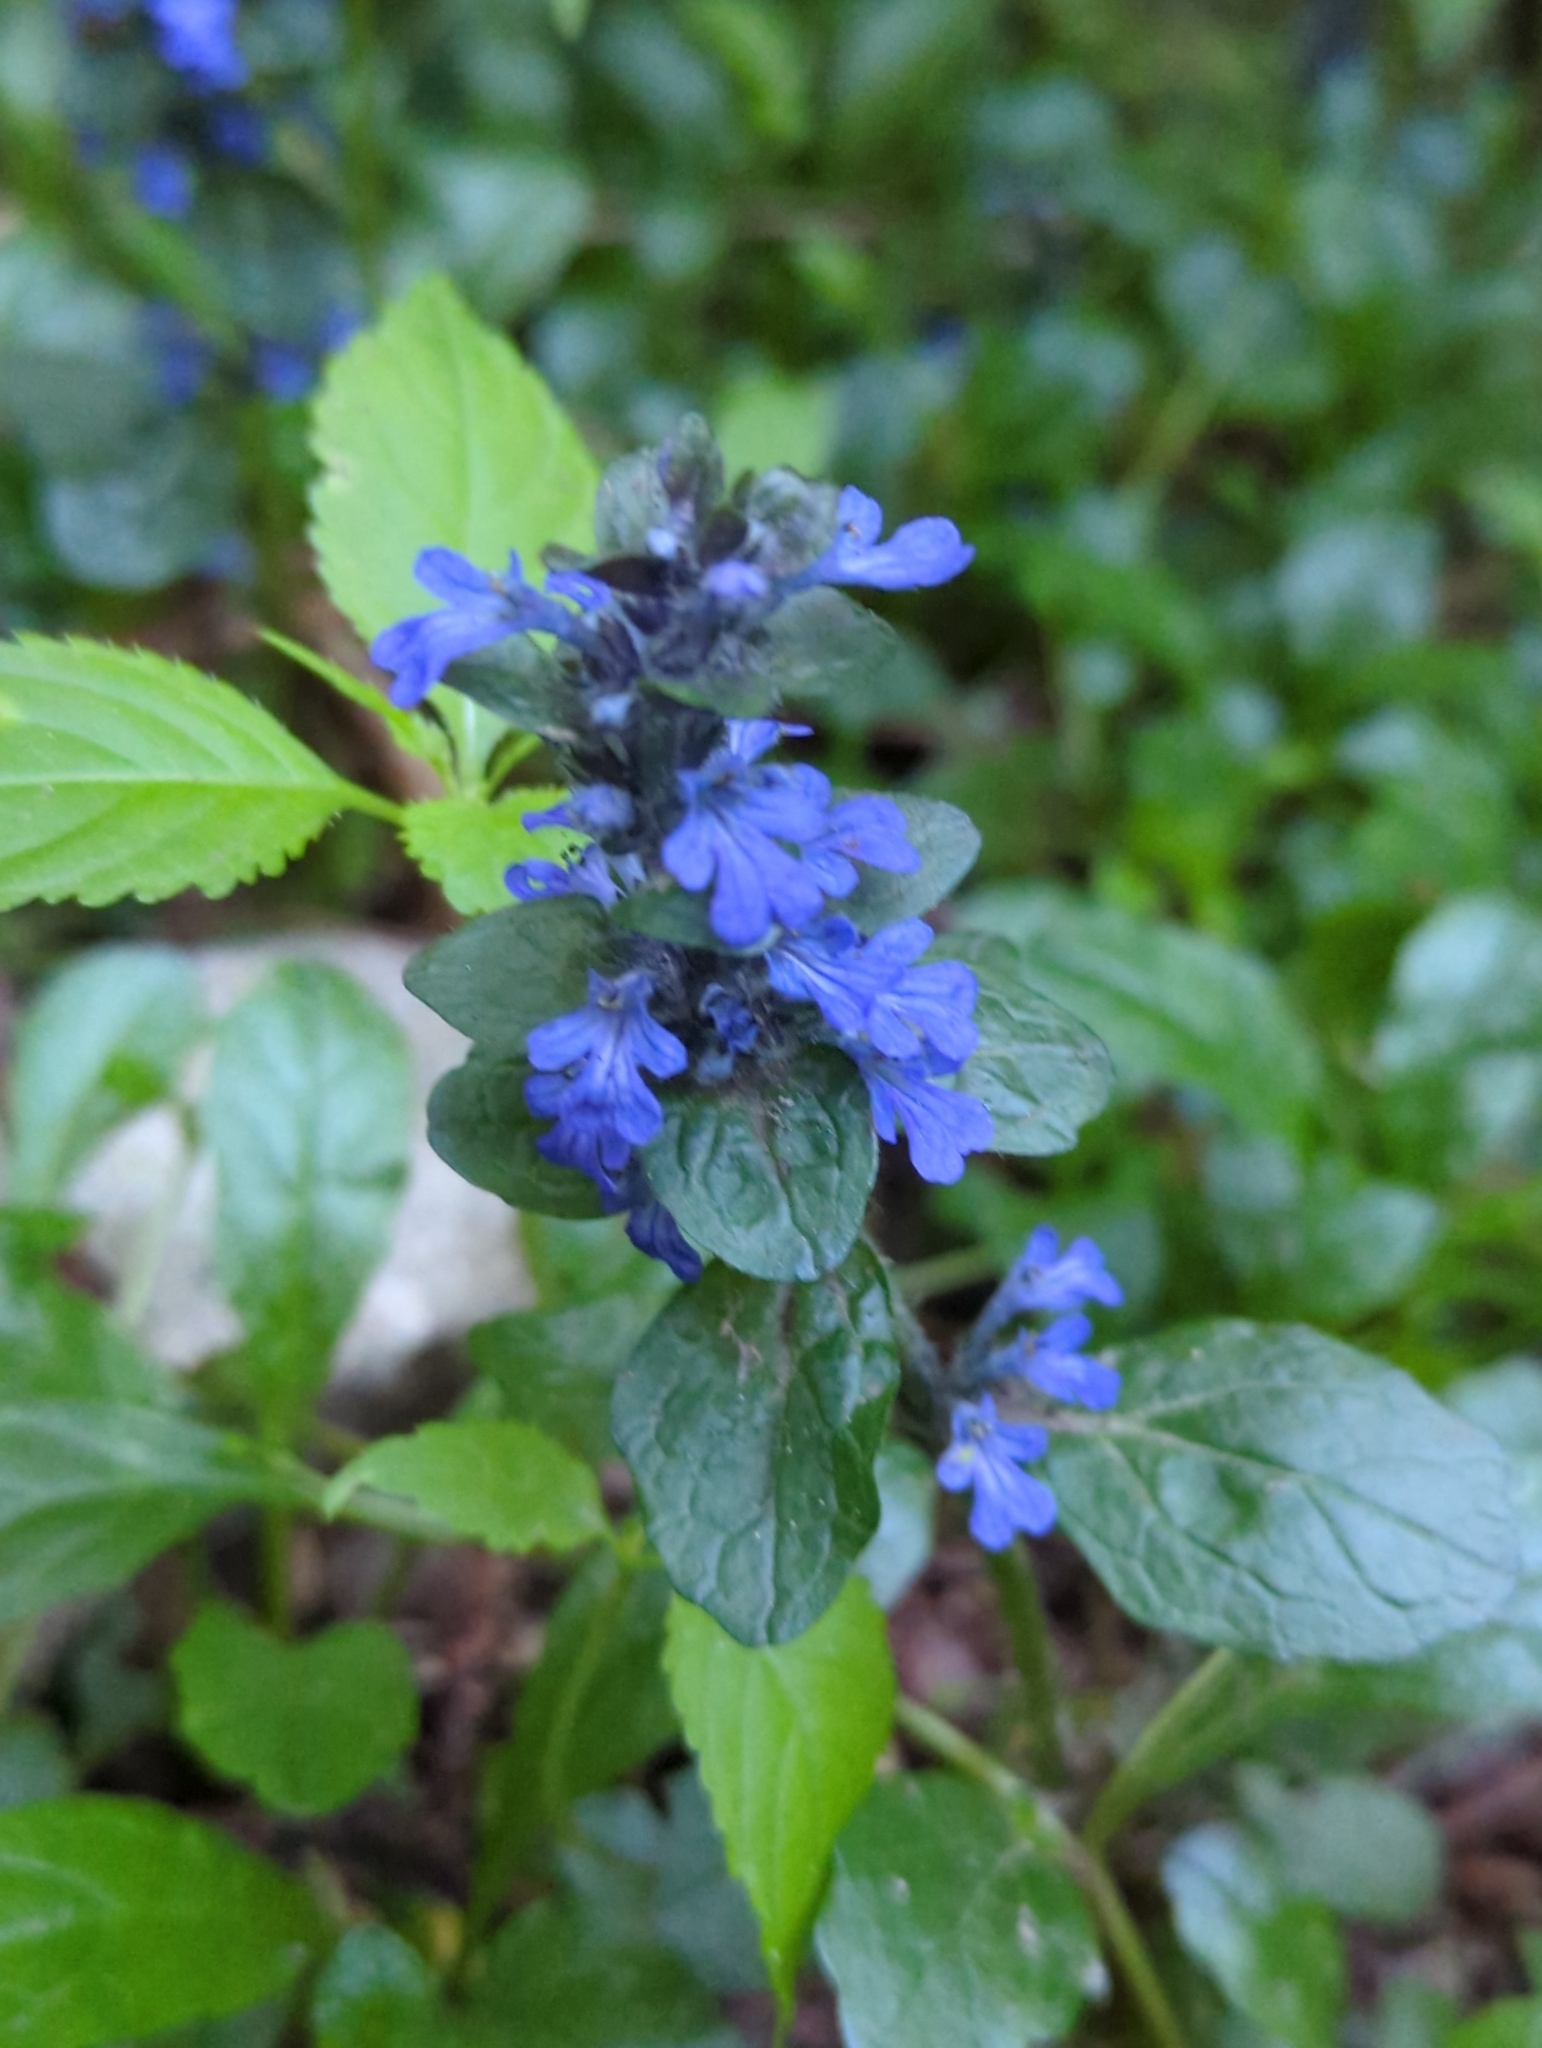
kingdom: Plantae
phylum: Tracheophyta
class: Magnoliopsida
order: Lamiales
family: Lamiaceae
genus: Ajuga
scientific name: Ajuga reptans
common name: Bugle
